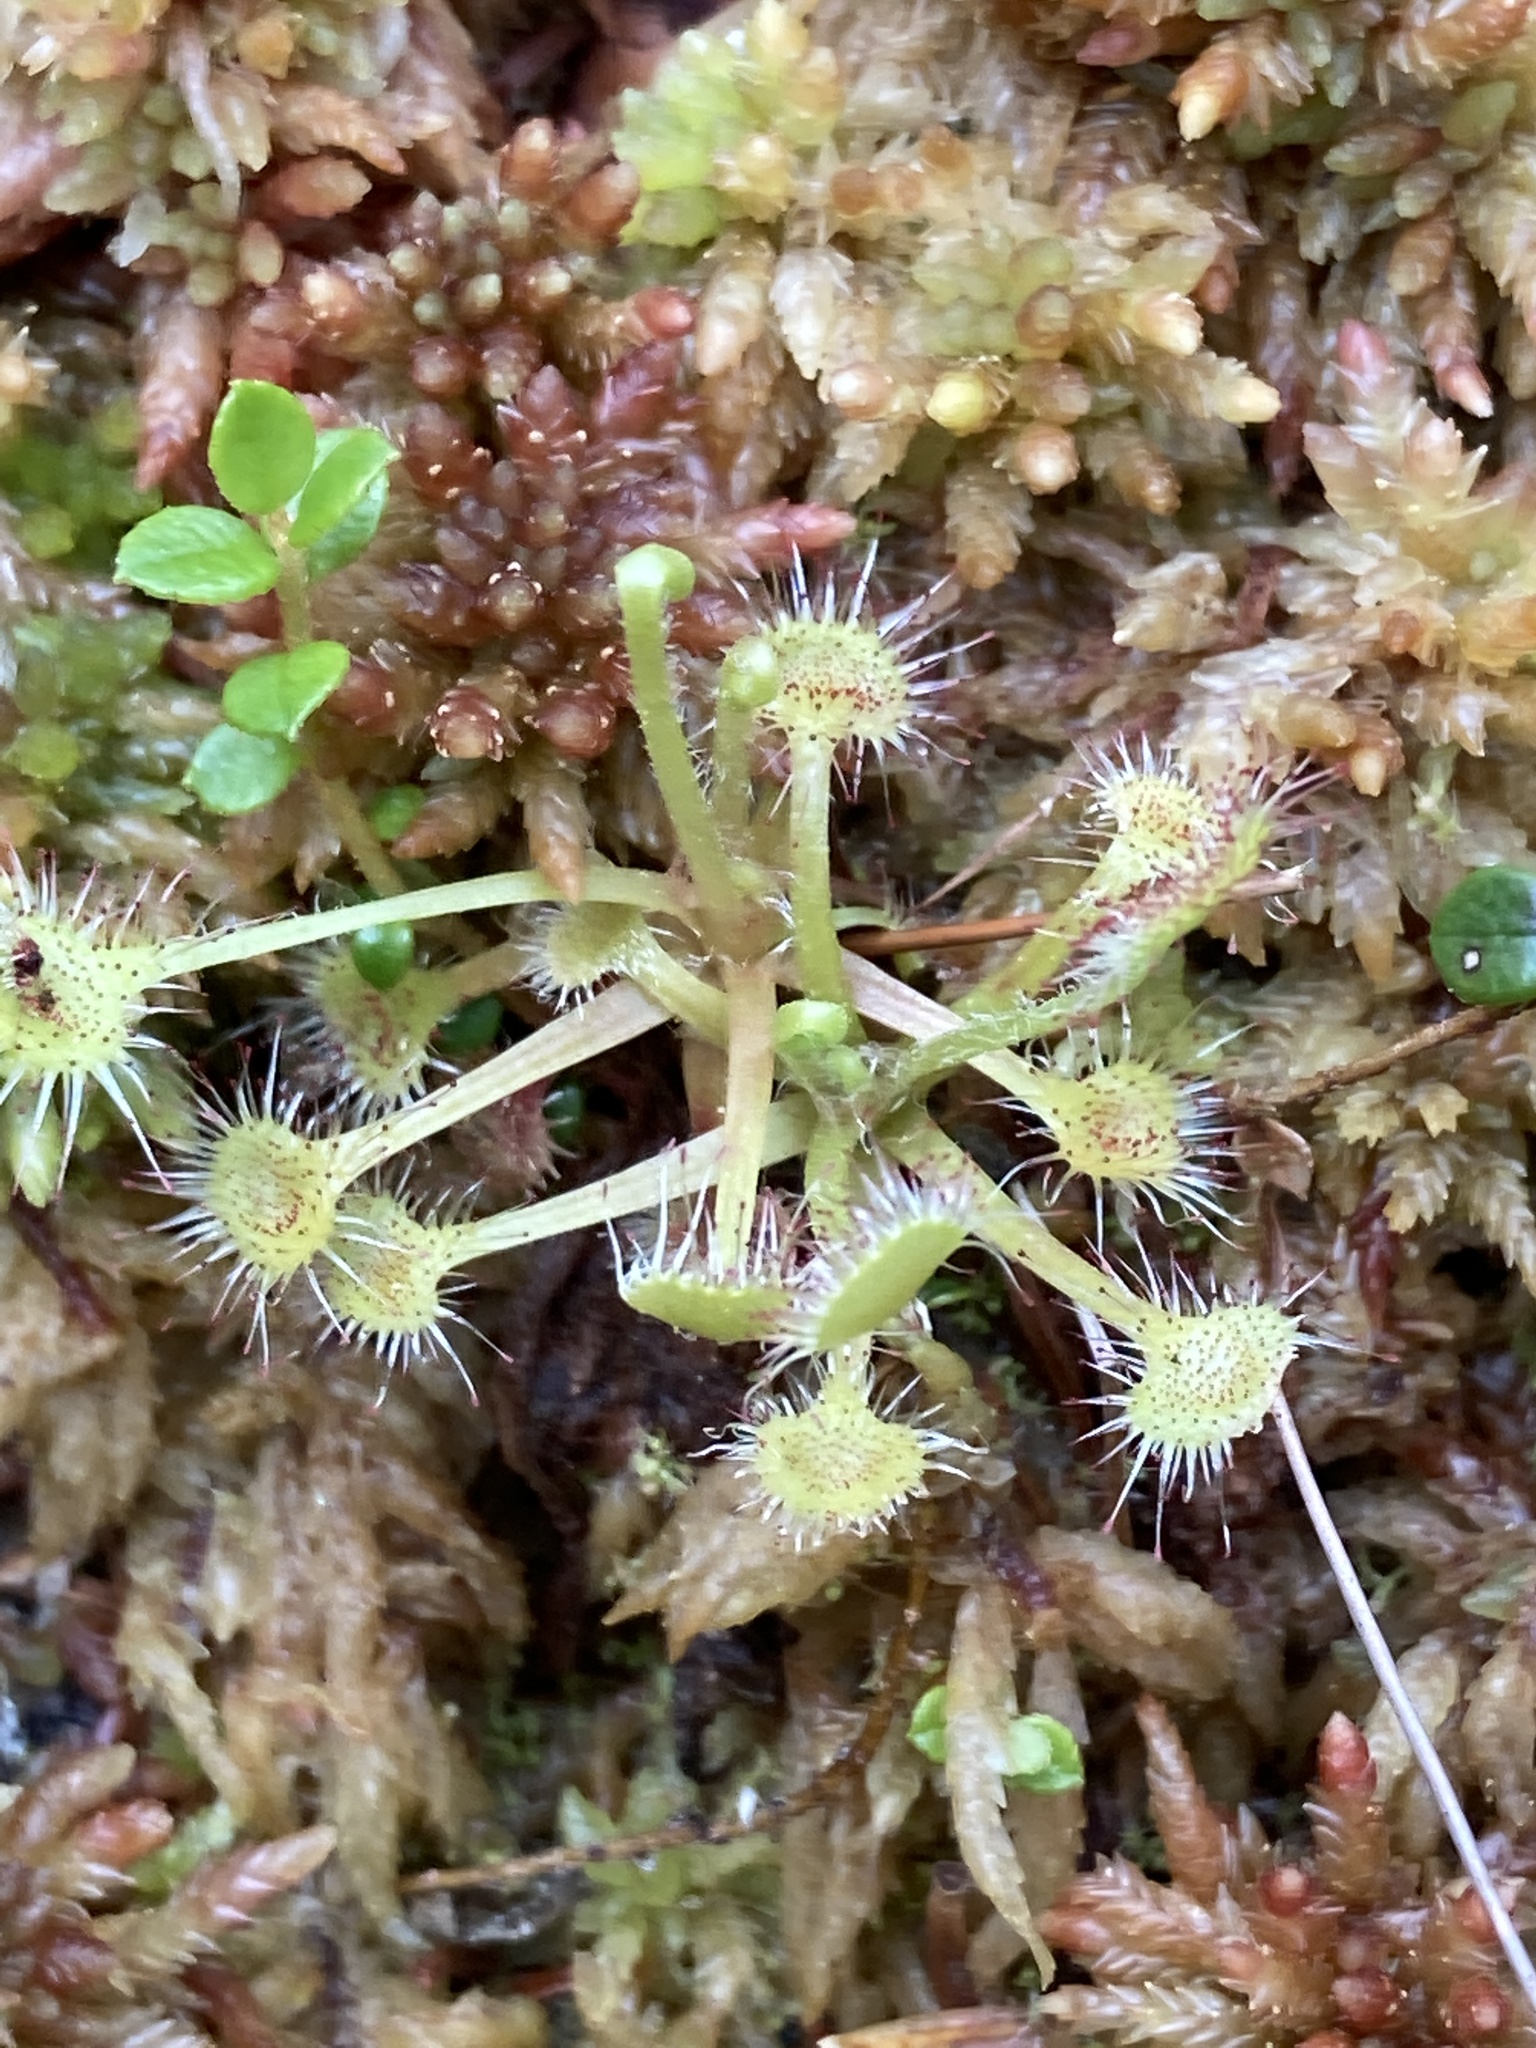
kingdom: Plantae
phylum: Tracheophyta
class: Magnoliopsida
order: Caryophyllales
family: Droseraceae
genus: Drosera
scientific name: Drosera rotundifolia
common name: Round-leaved sundew
